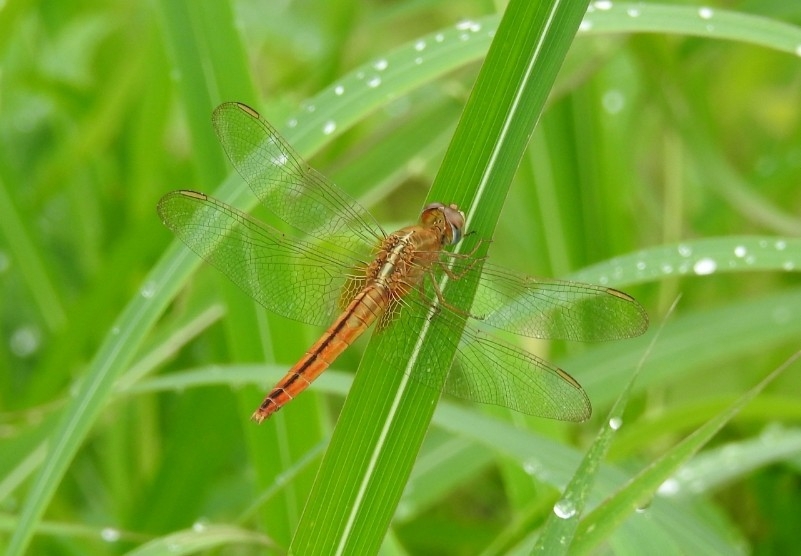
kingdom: Animalia
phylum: Arthropoda
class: Insecta
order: Odonata
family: Libellulidae
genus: Crocothemis
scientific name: Crocothemis servilia
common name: Scarlet skimmer
